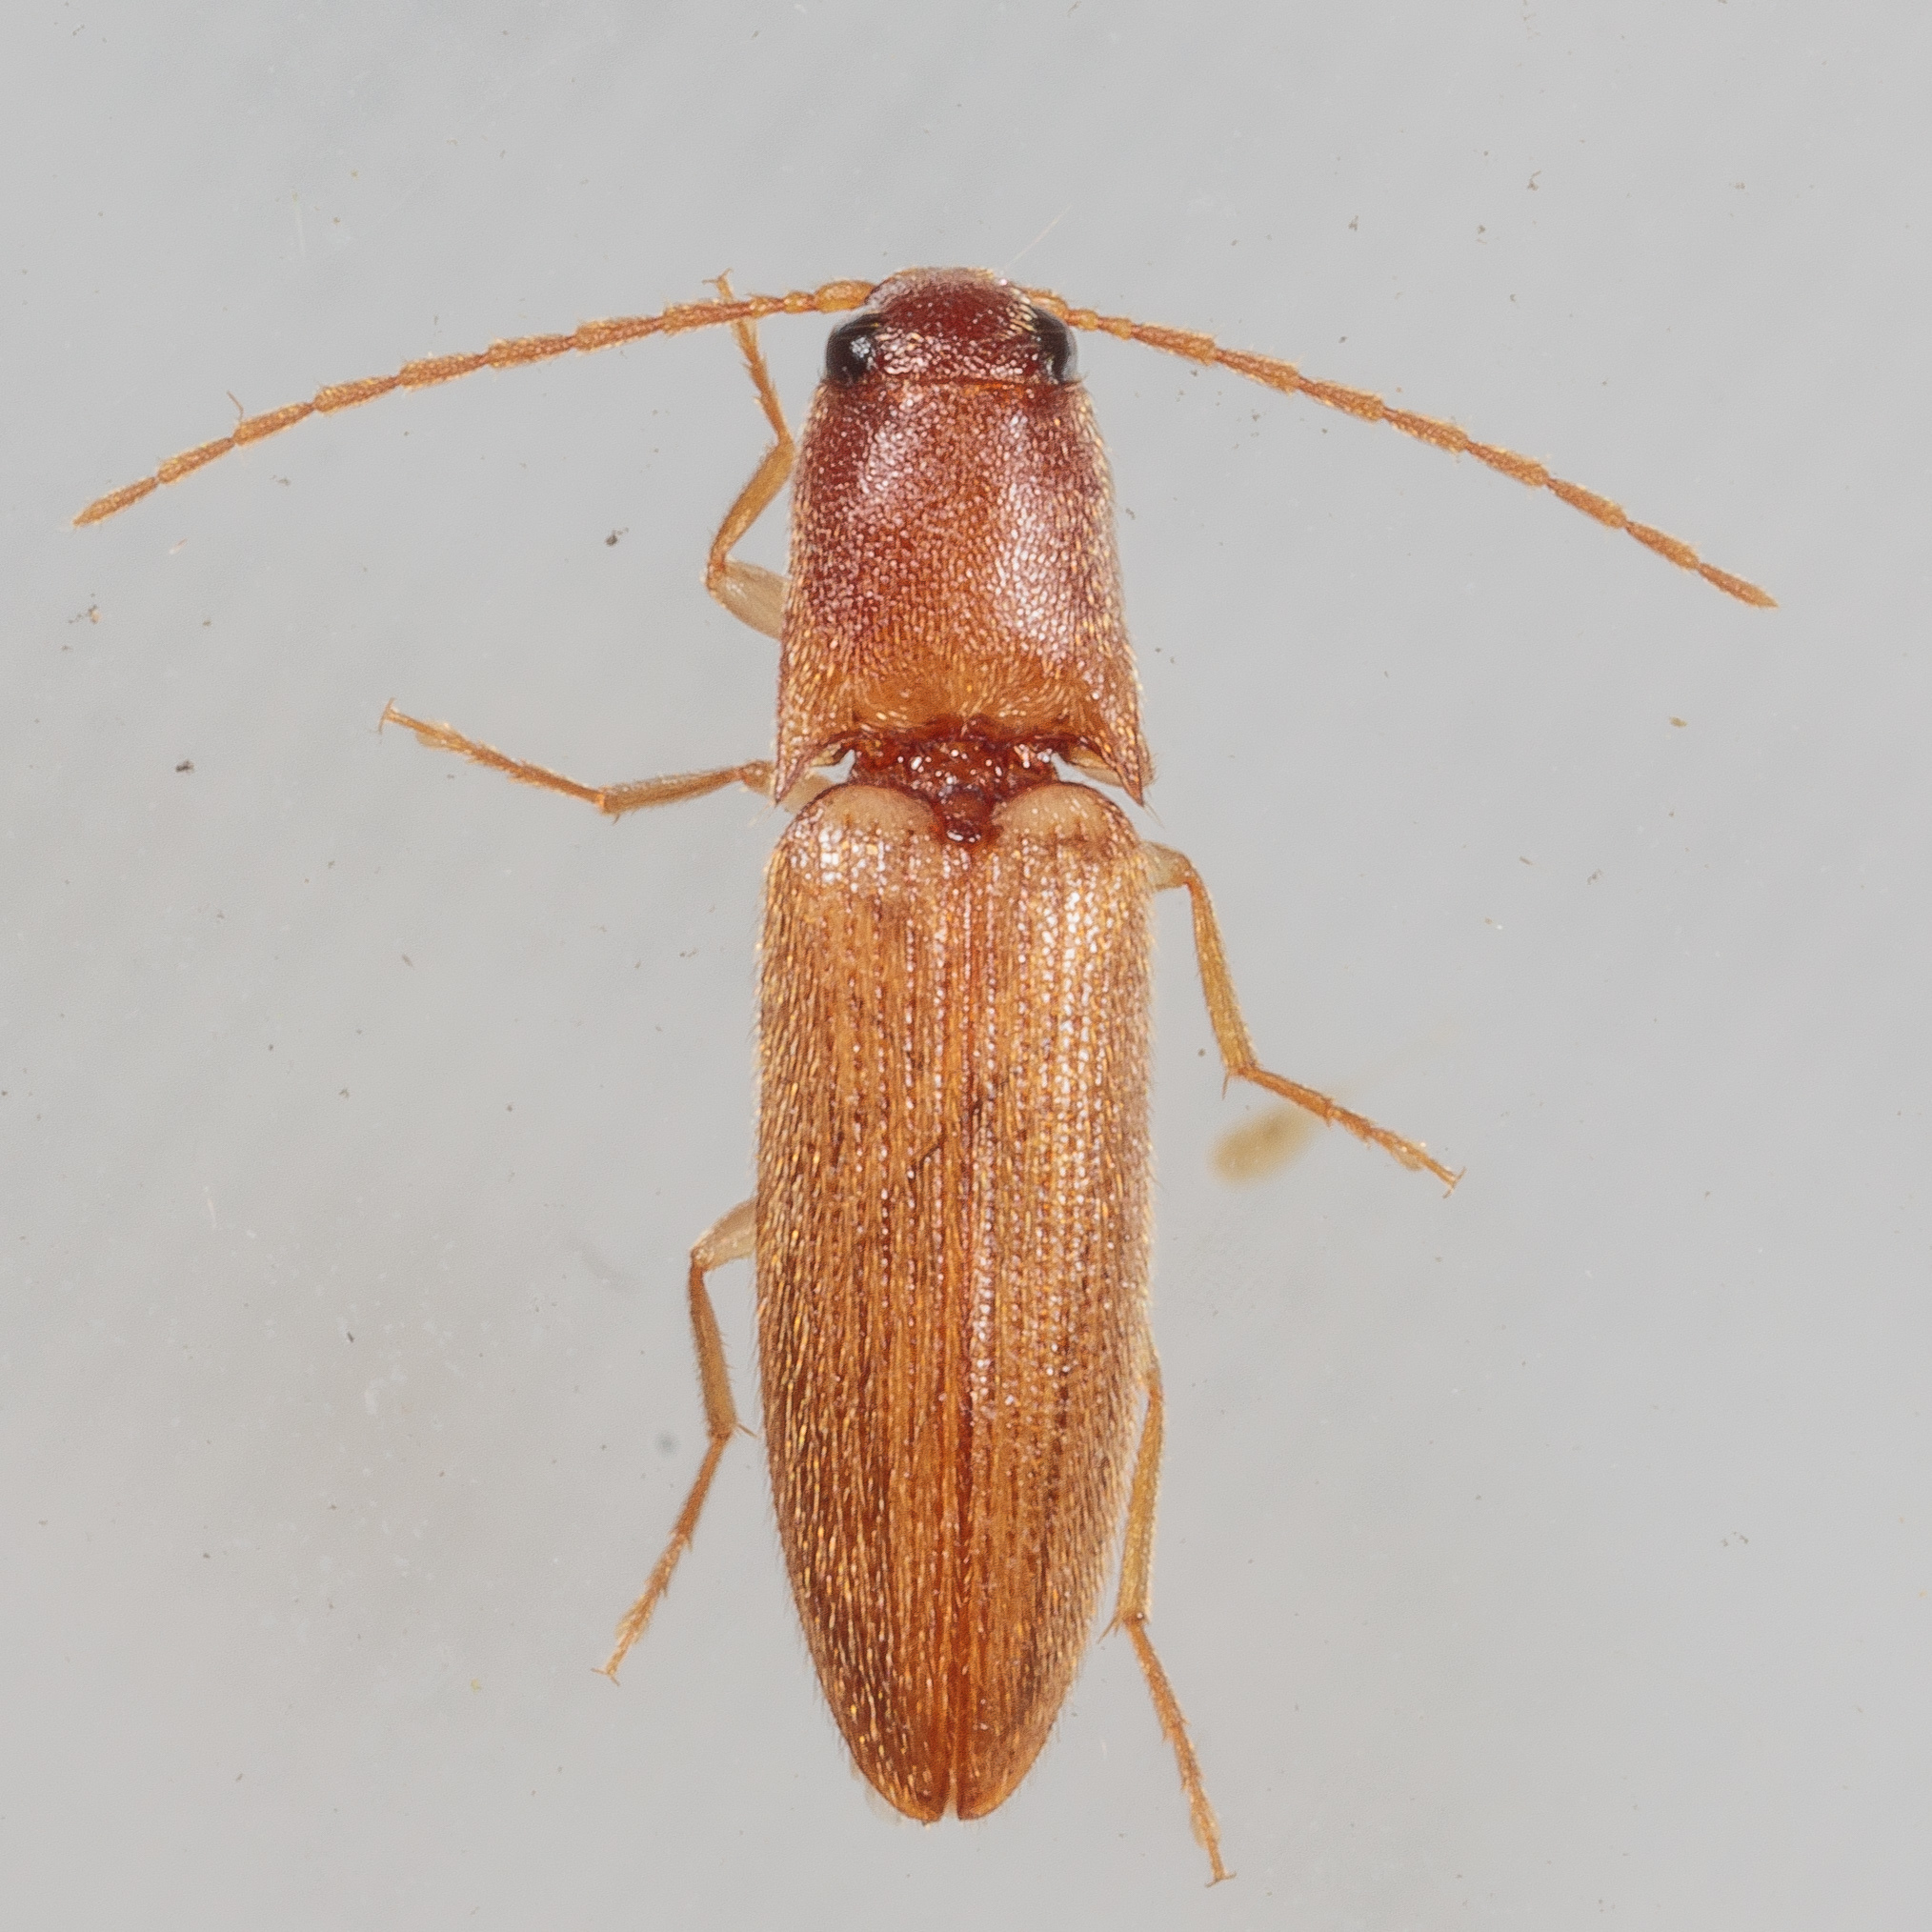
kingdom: Animalia
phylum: Arthropoda
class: Insecta
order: Coleoptera
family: Elateridae
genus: Anchastus
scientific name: Anchastus fumicollis
